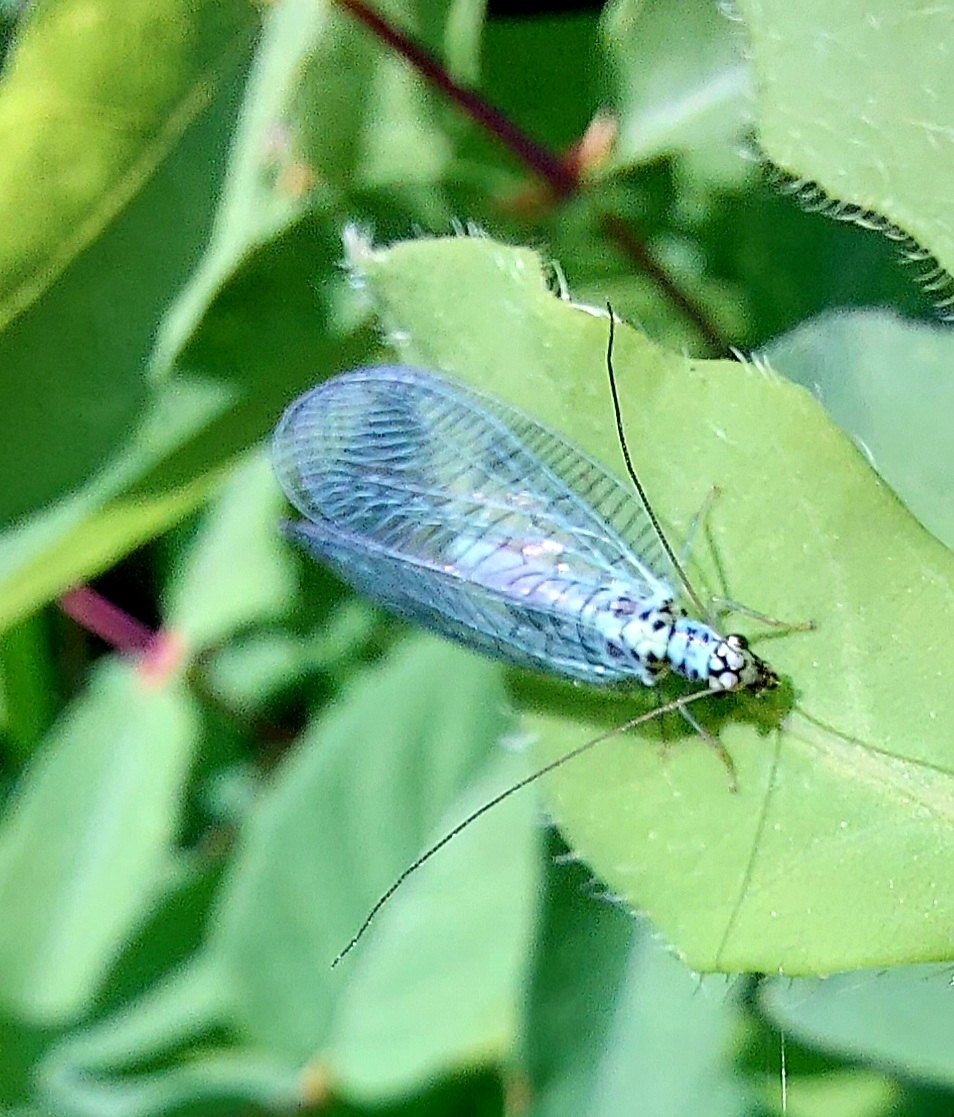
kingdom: Animalia
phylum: Arthropoda
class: Insecta
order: Neuroptera
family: Chrysopidae
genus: Chrysopa
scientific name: Chrysopa perla
